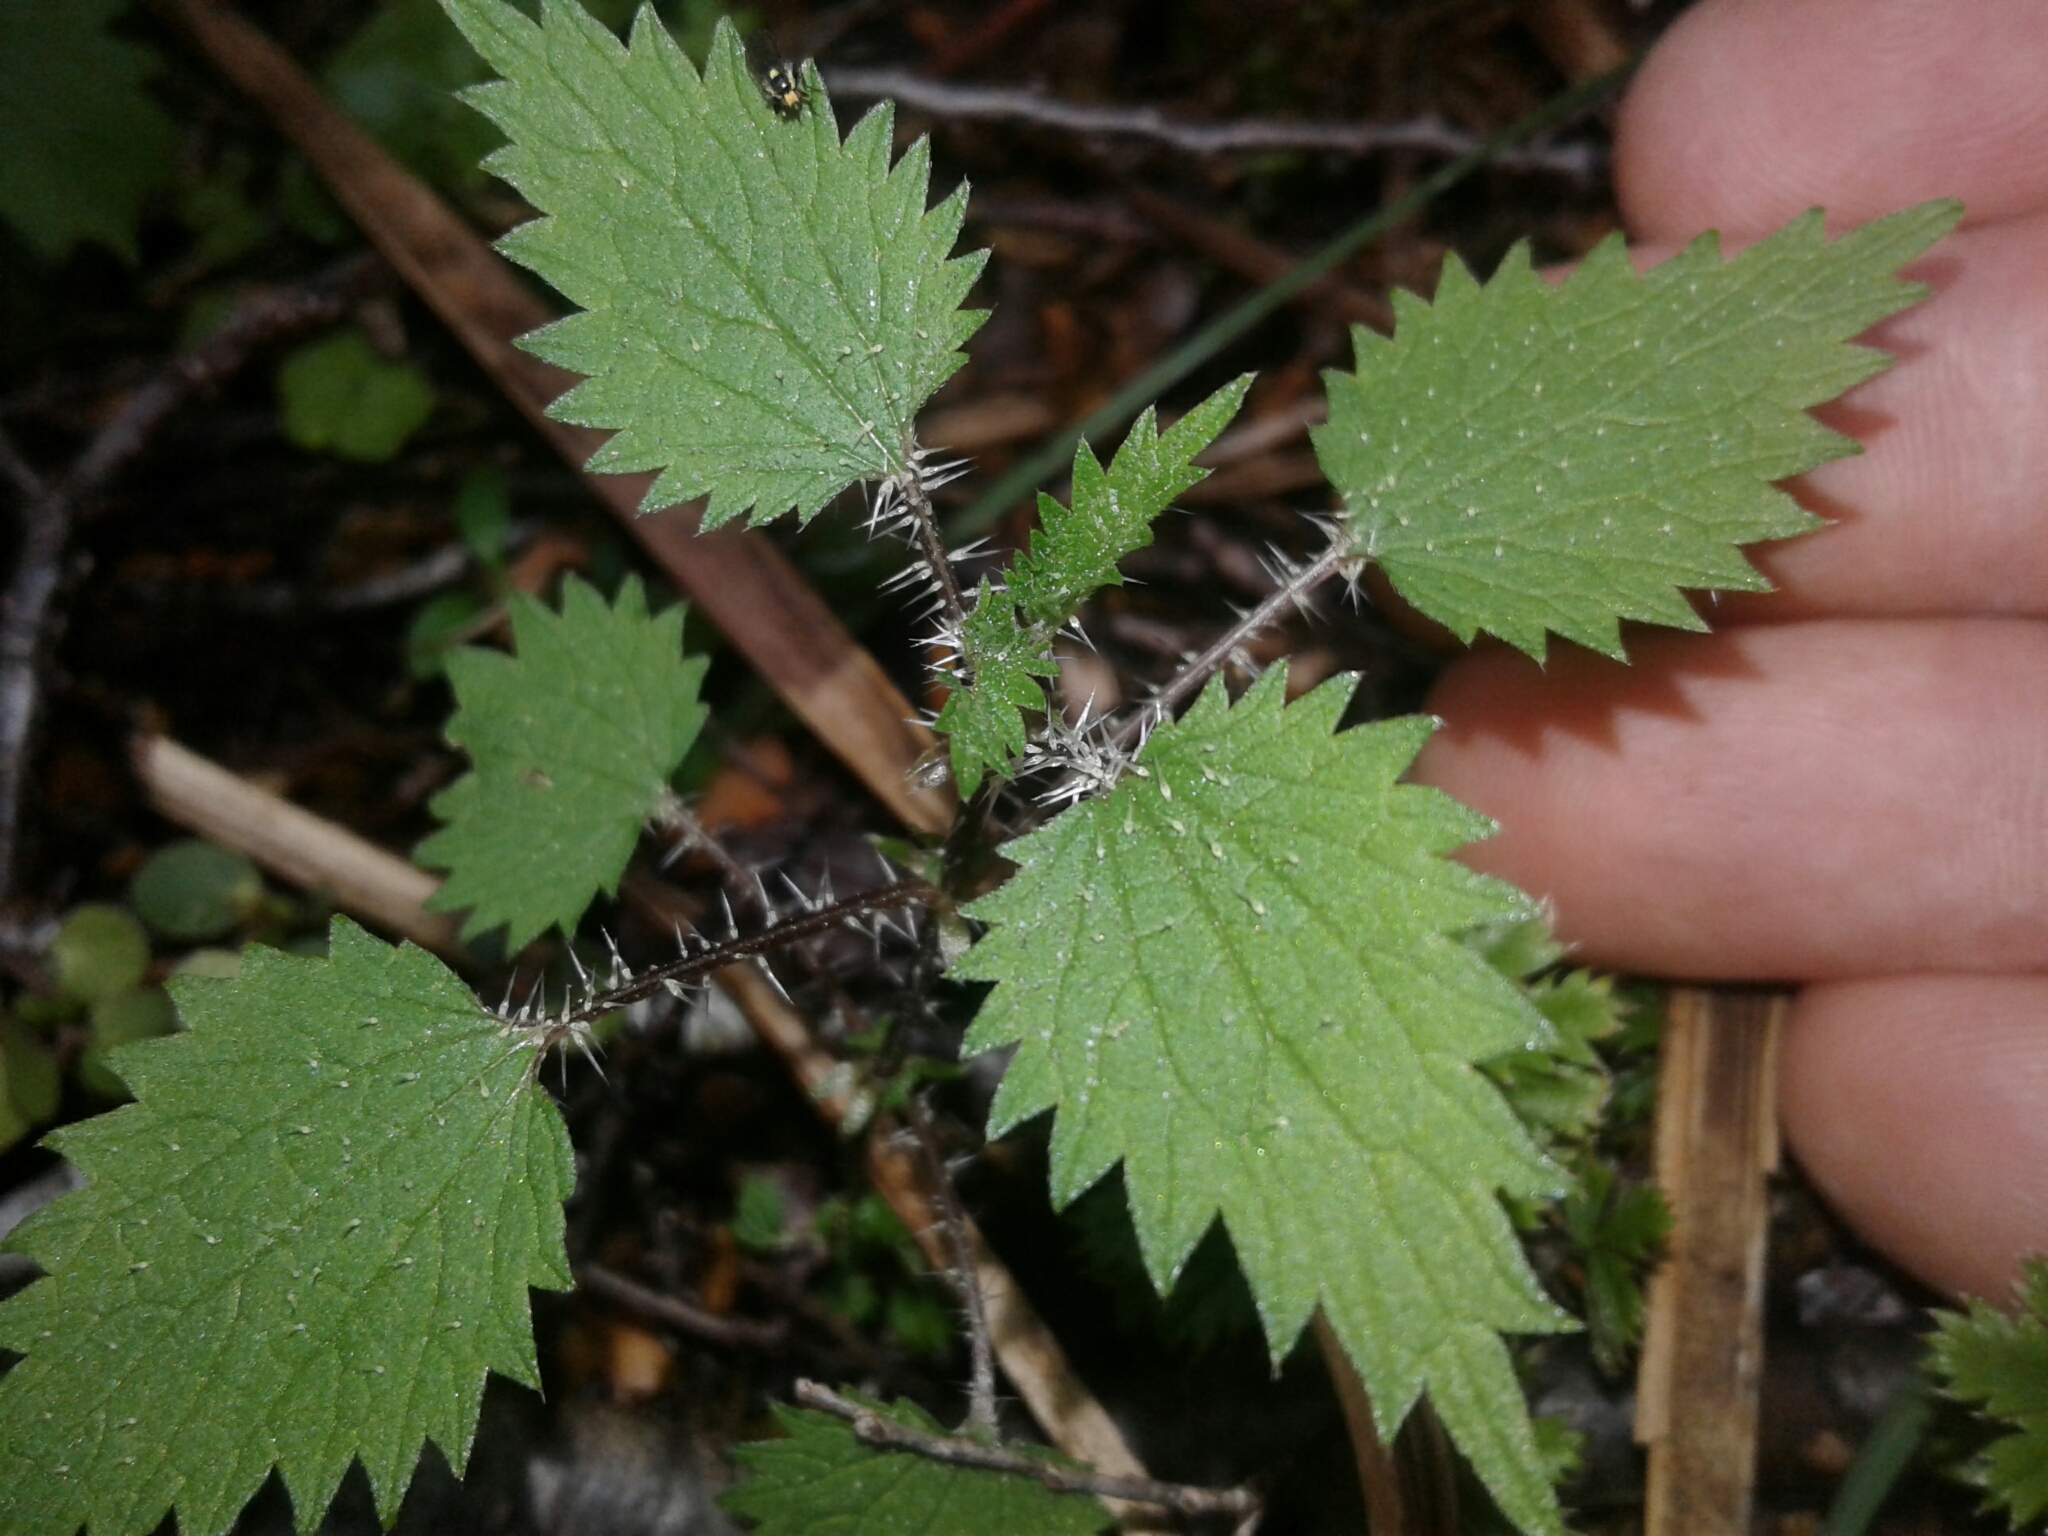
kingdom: Plantae
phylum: Tracheophyta
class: Magnoliopsida
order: Rosales
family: Urticaceae
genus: Urtica
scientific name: Urtica sykesii
